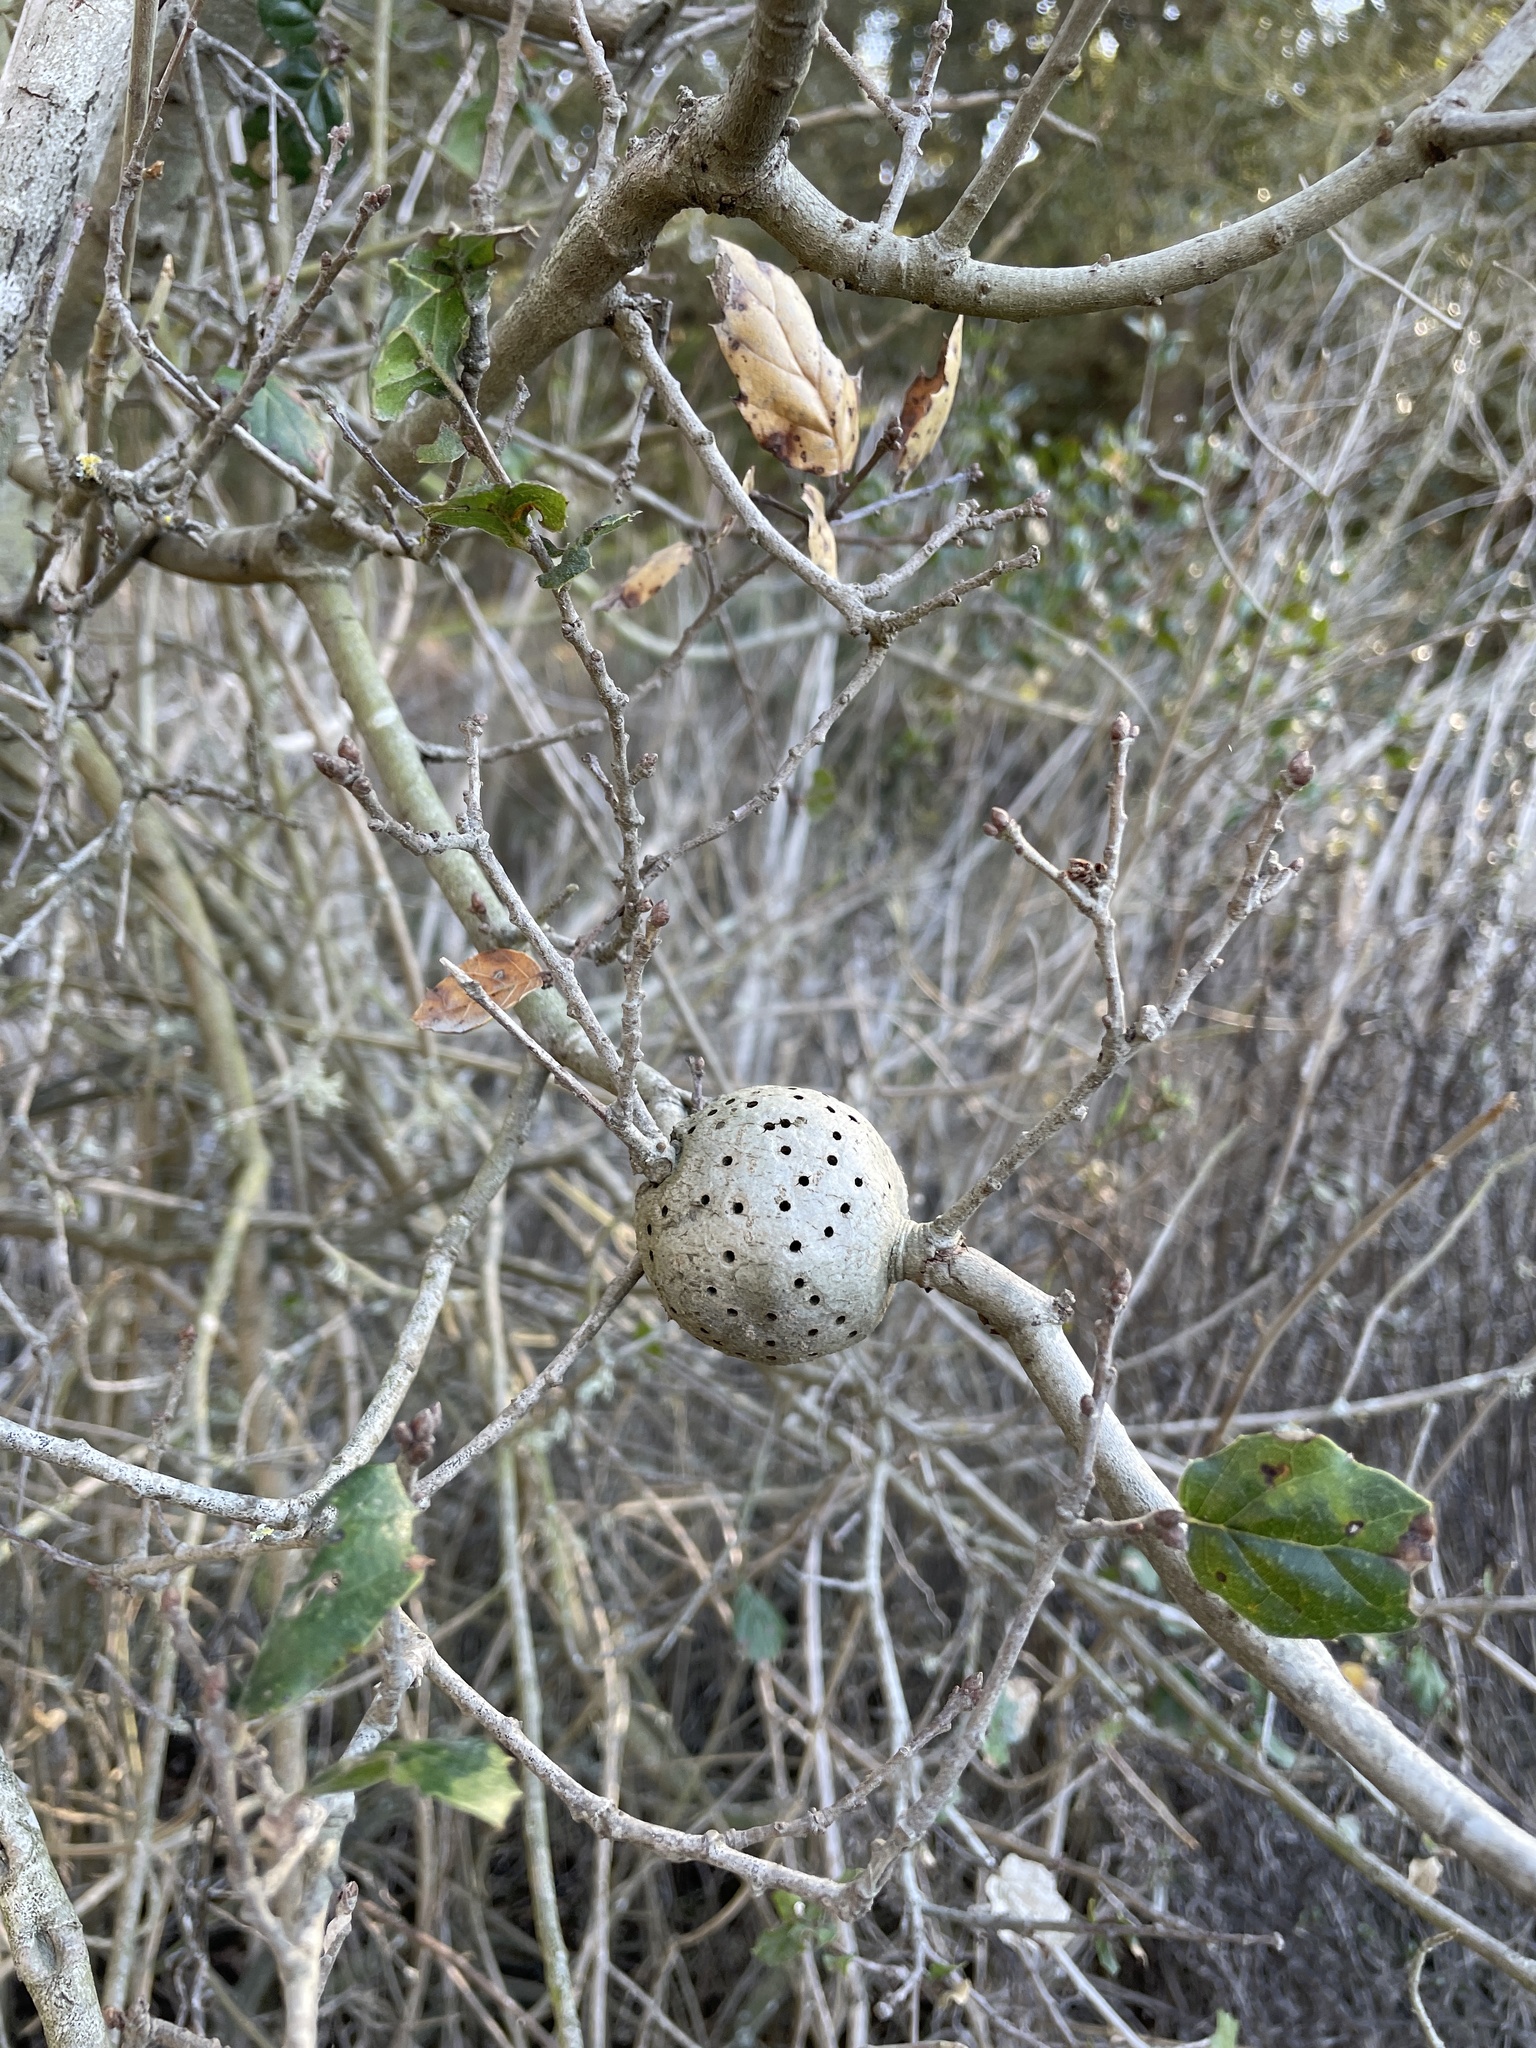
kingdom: Animalia
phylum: Arthropoda
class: Insecta
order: Hymenoptera
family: Cynipidae
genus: Callirhytis
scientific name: Callirhytis
